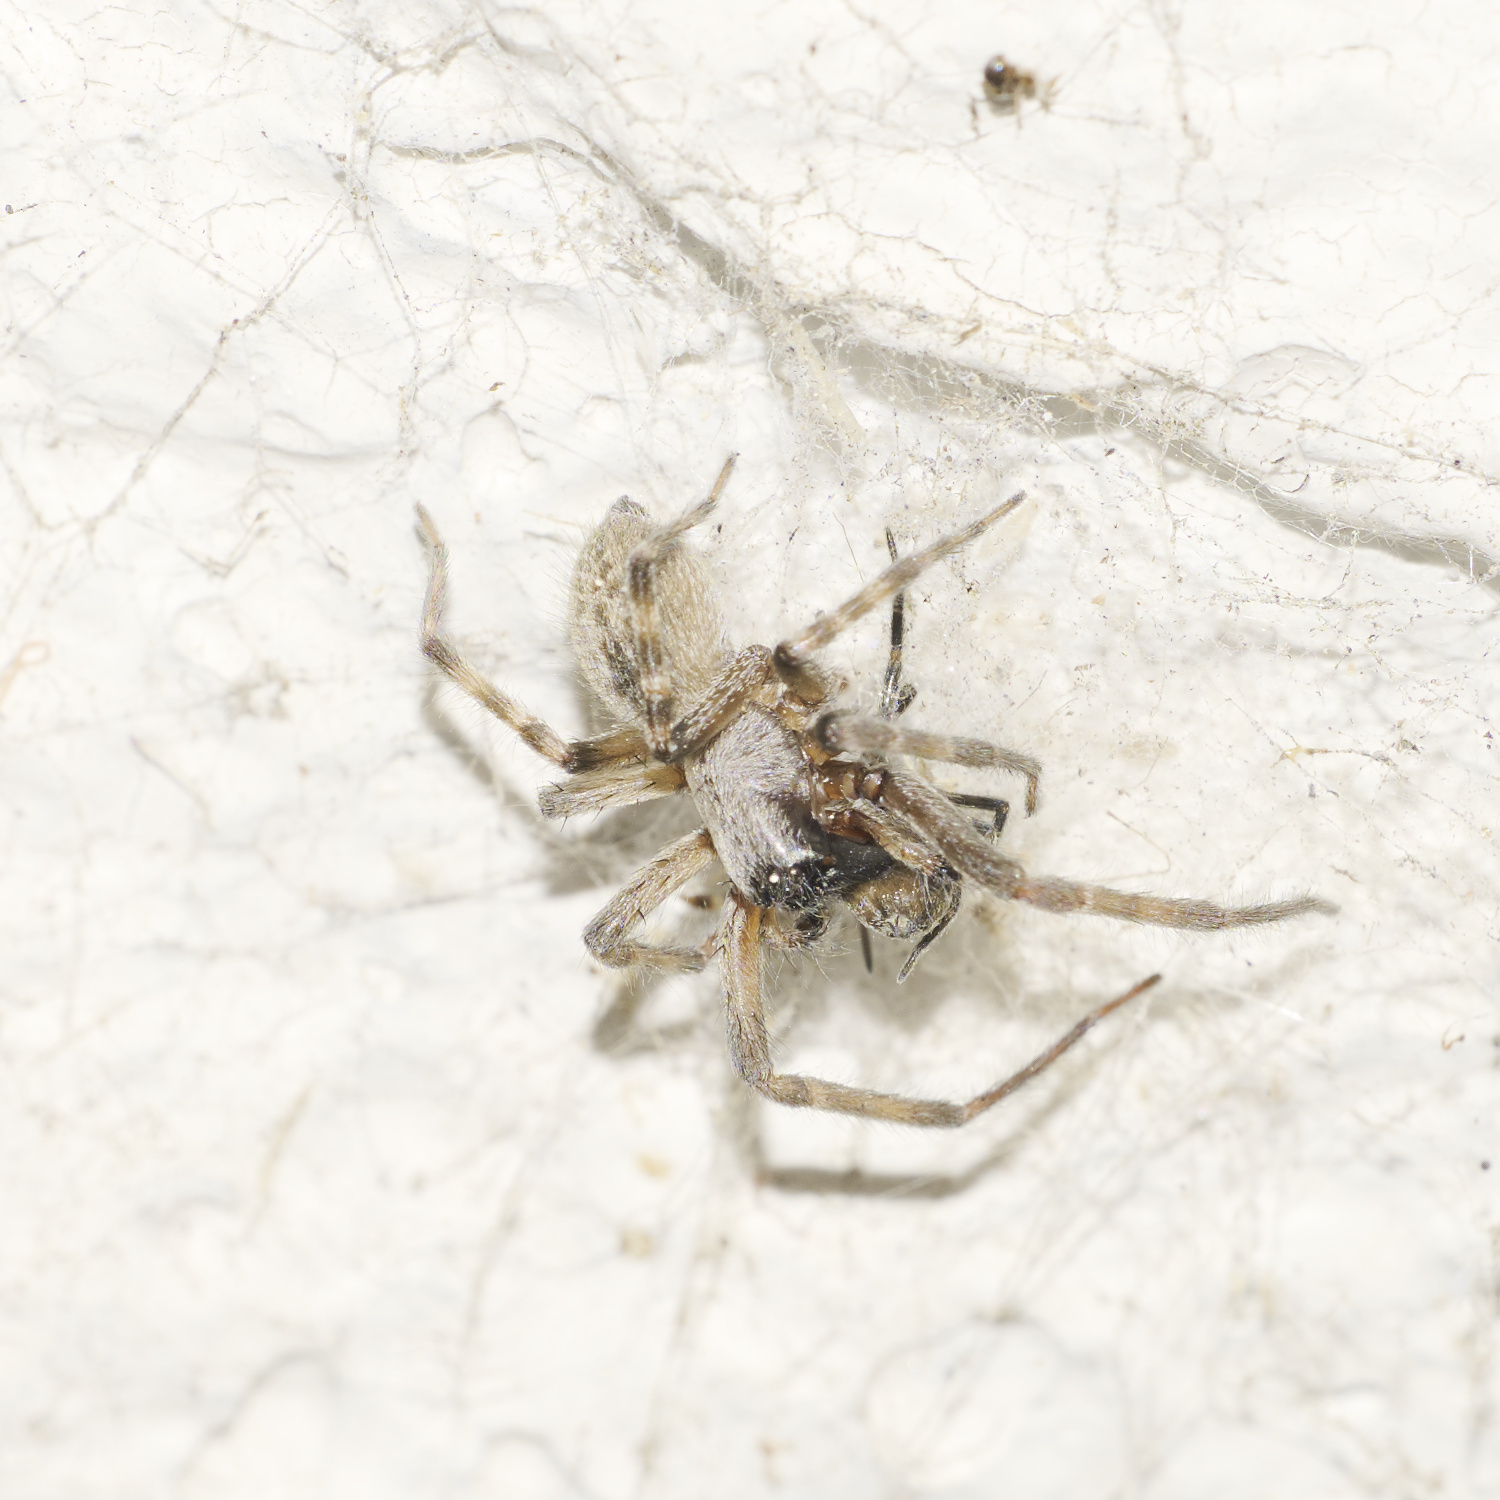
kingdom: Animalia
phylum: Arthropoda
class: Arachnida
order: Araneae
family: Desidae
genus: Badumna
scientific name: Badumna longinqua
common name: Gray house spider
